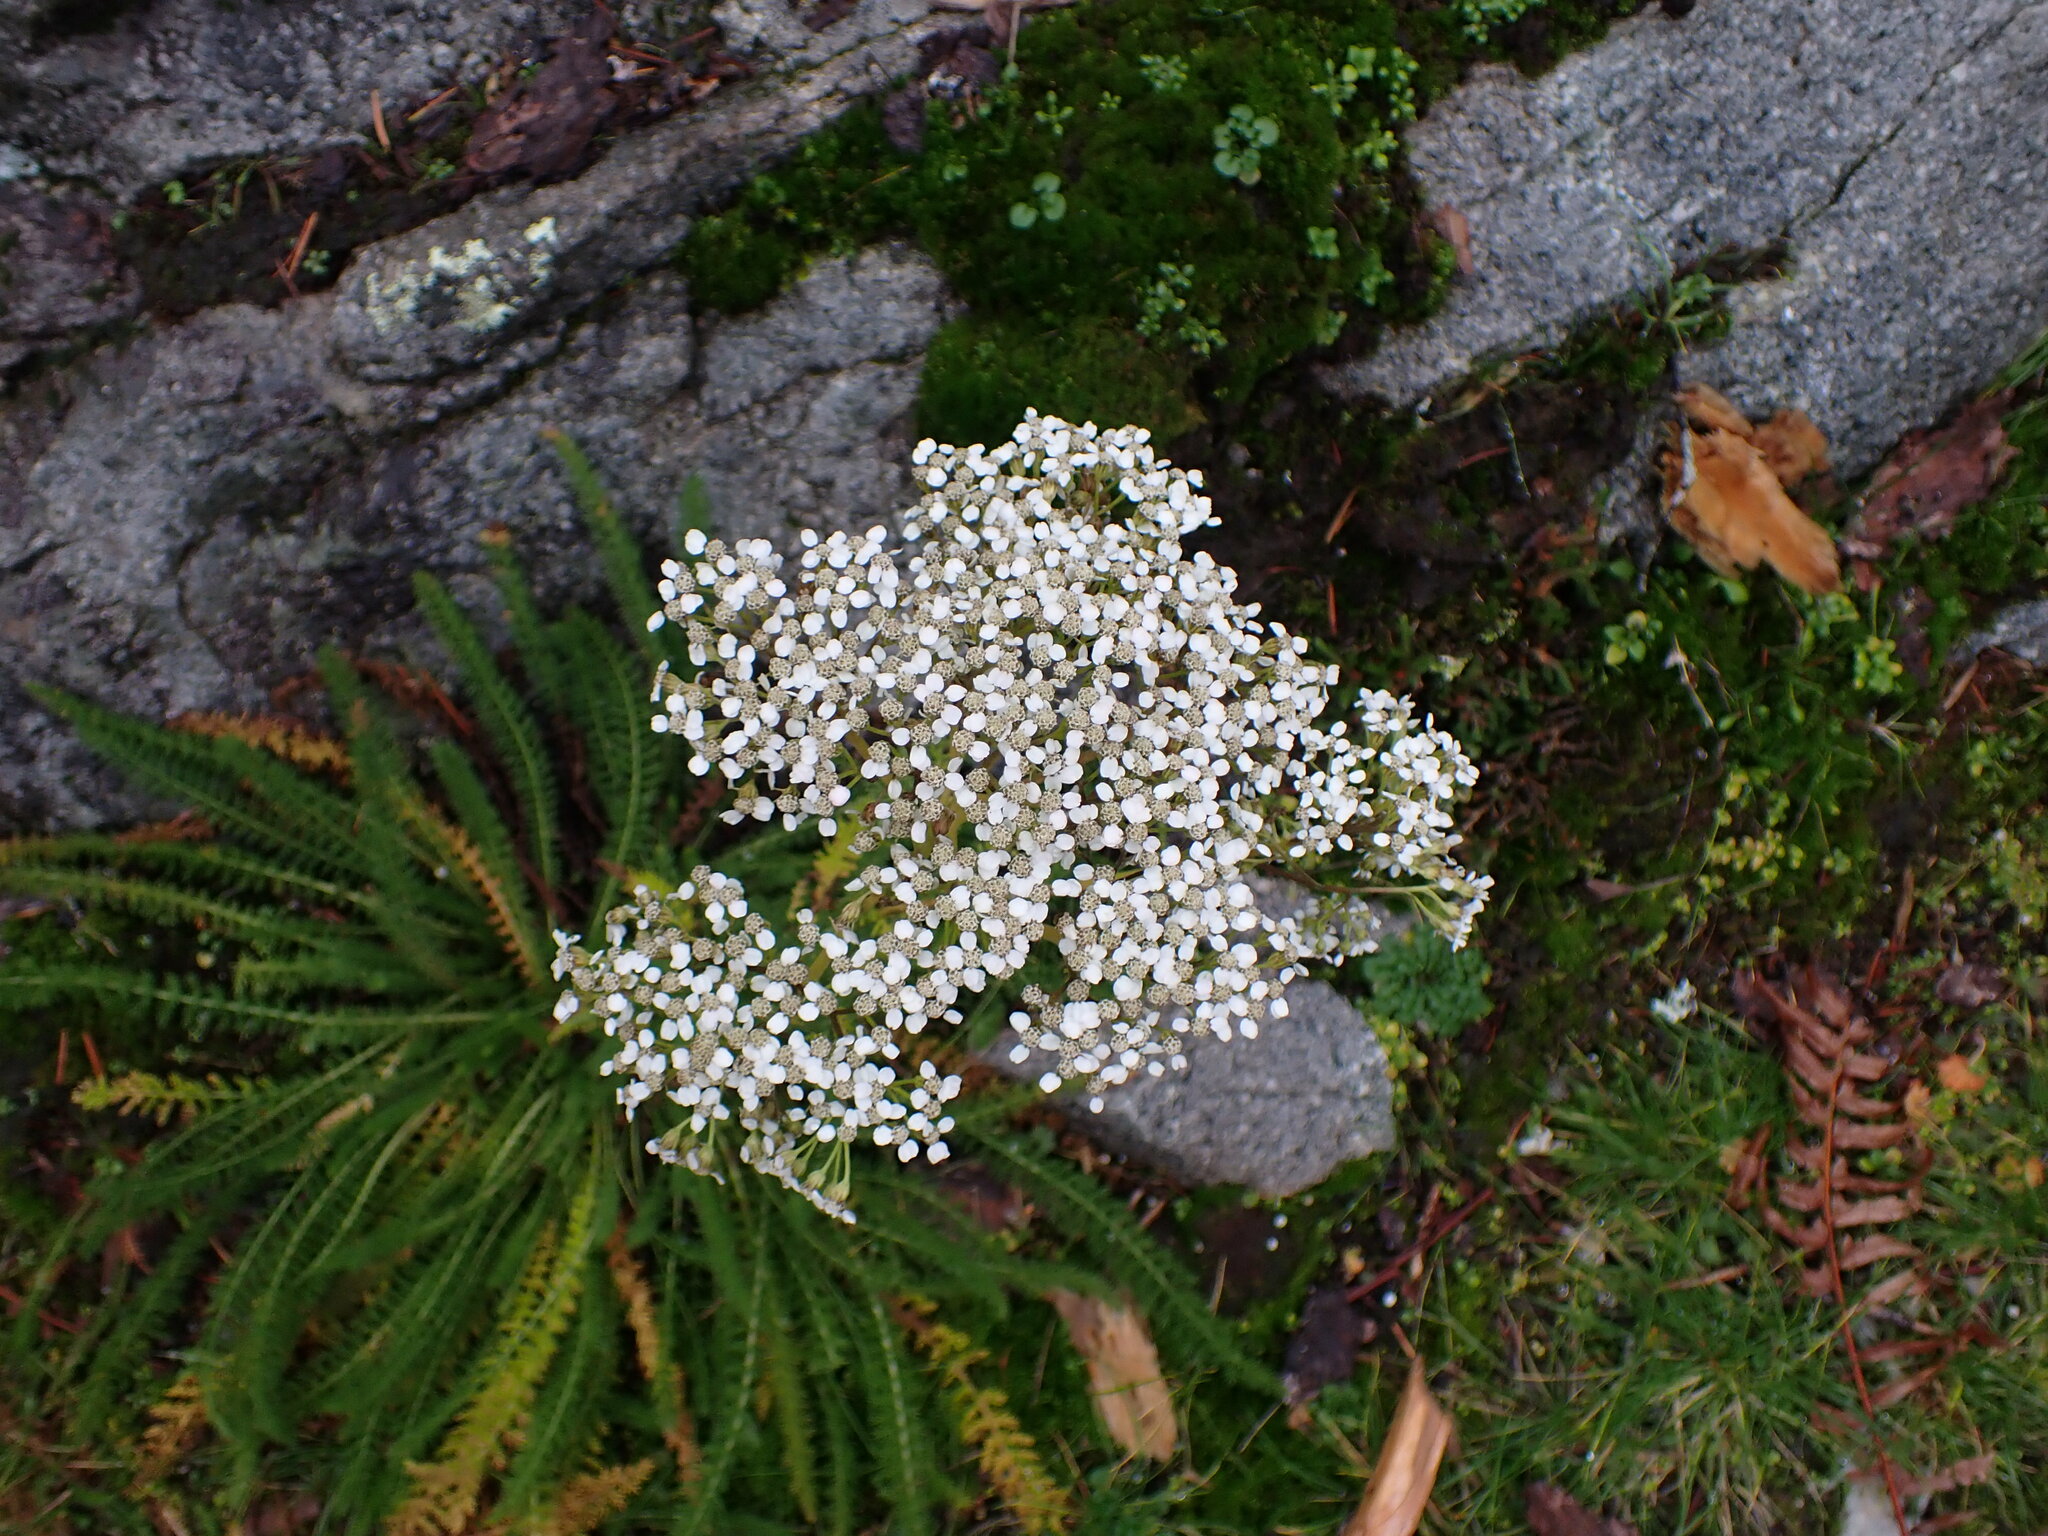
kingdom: Plantae
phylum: Tracheophyta
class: Magnoliopsida
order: Asterales
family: Asteraceae
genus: Achillea
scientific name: Achillea millefolium
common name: Yarrow
